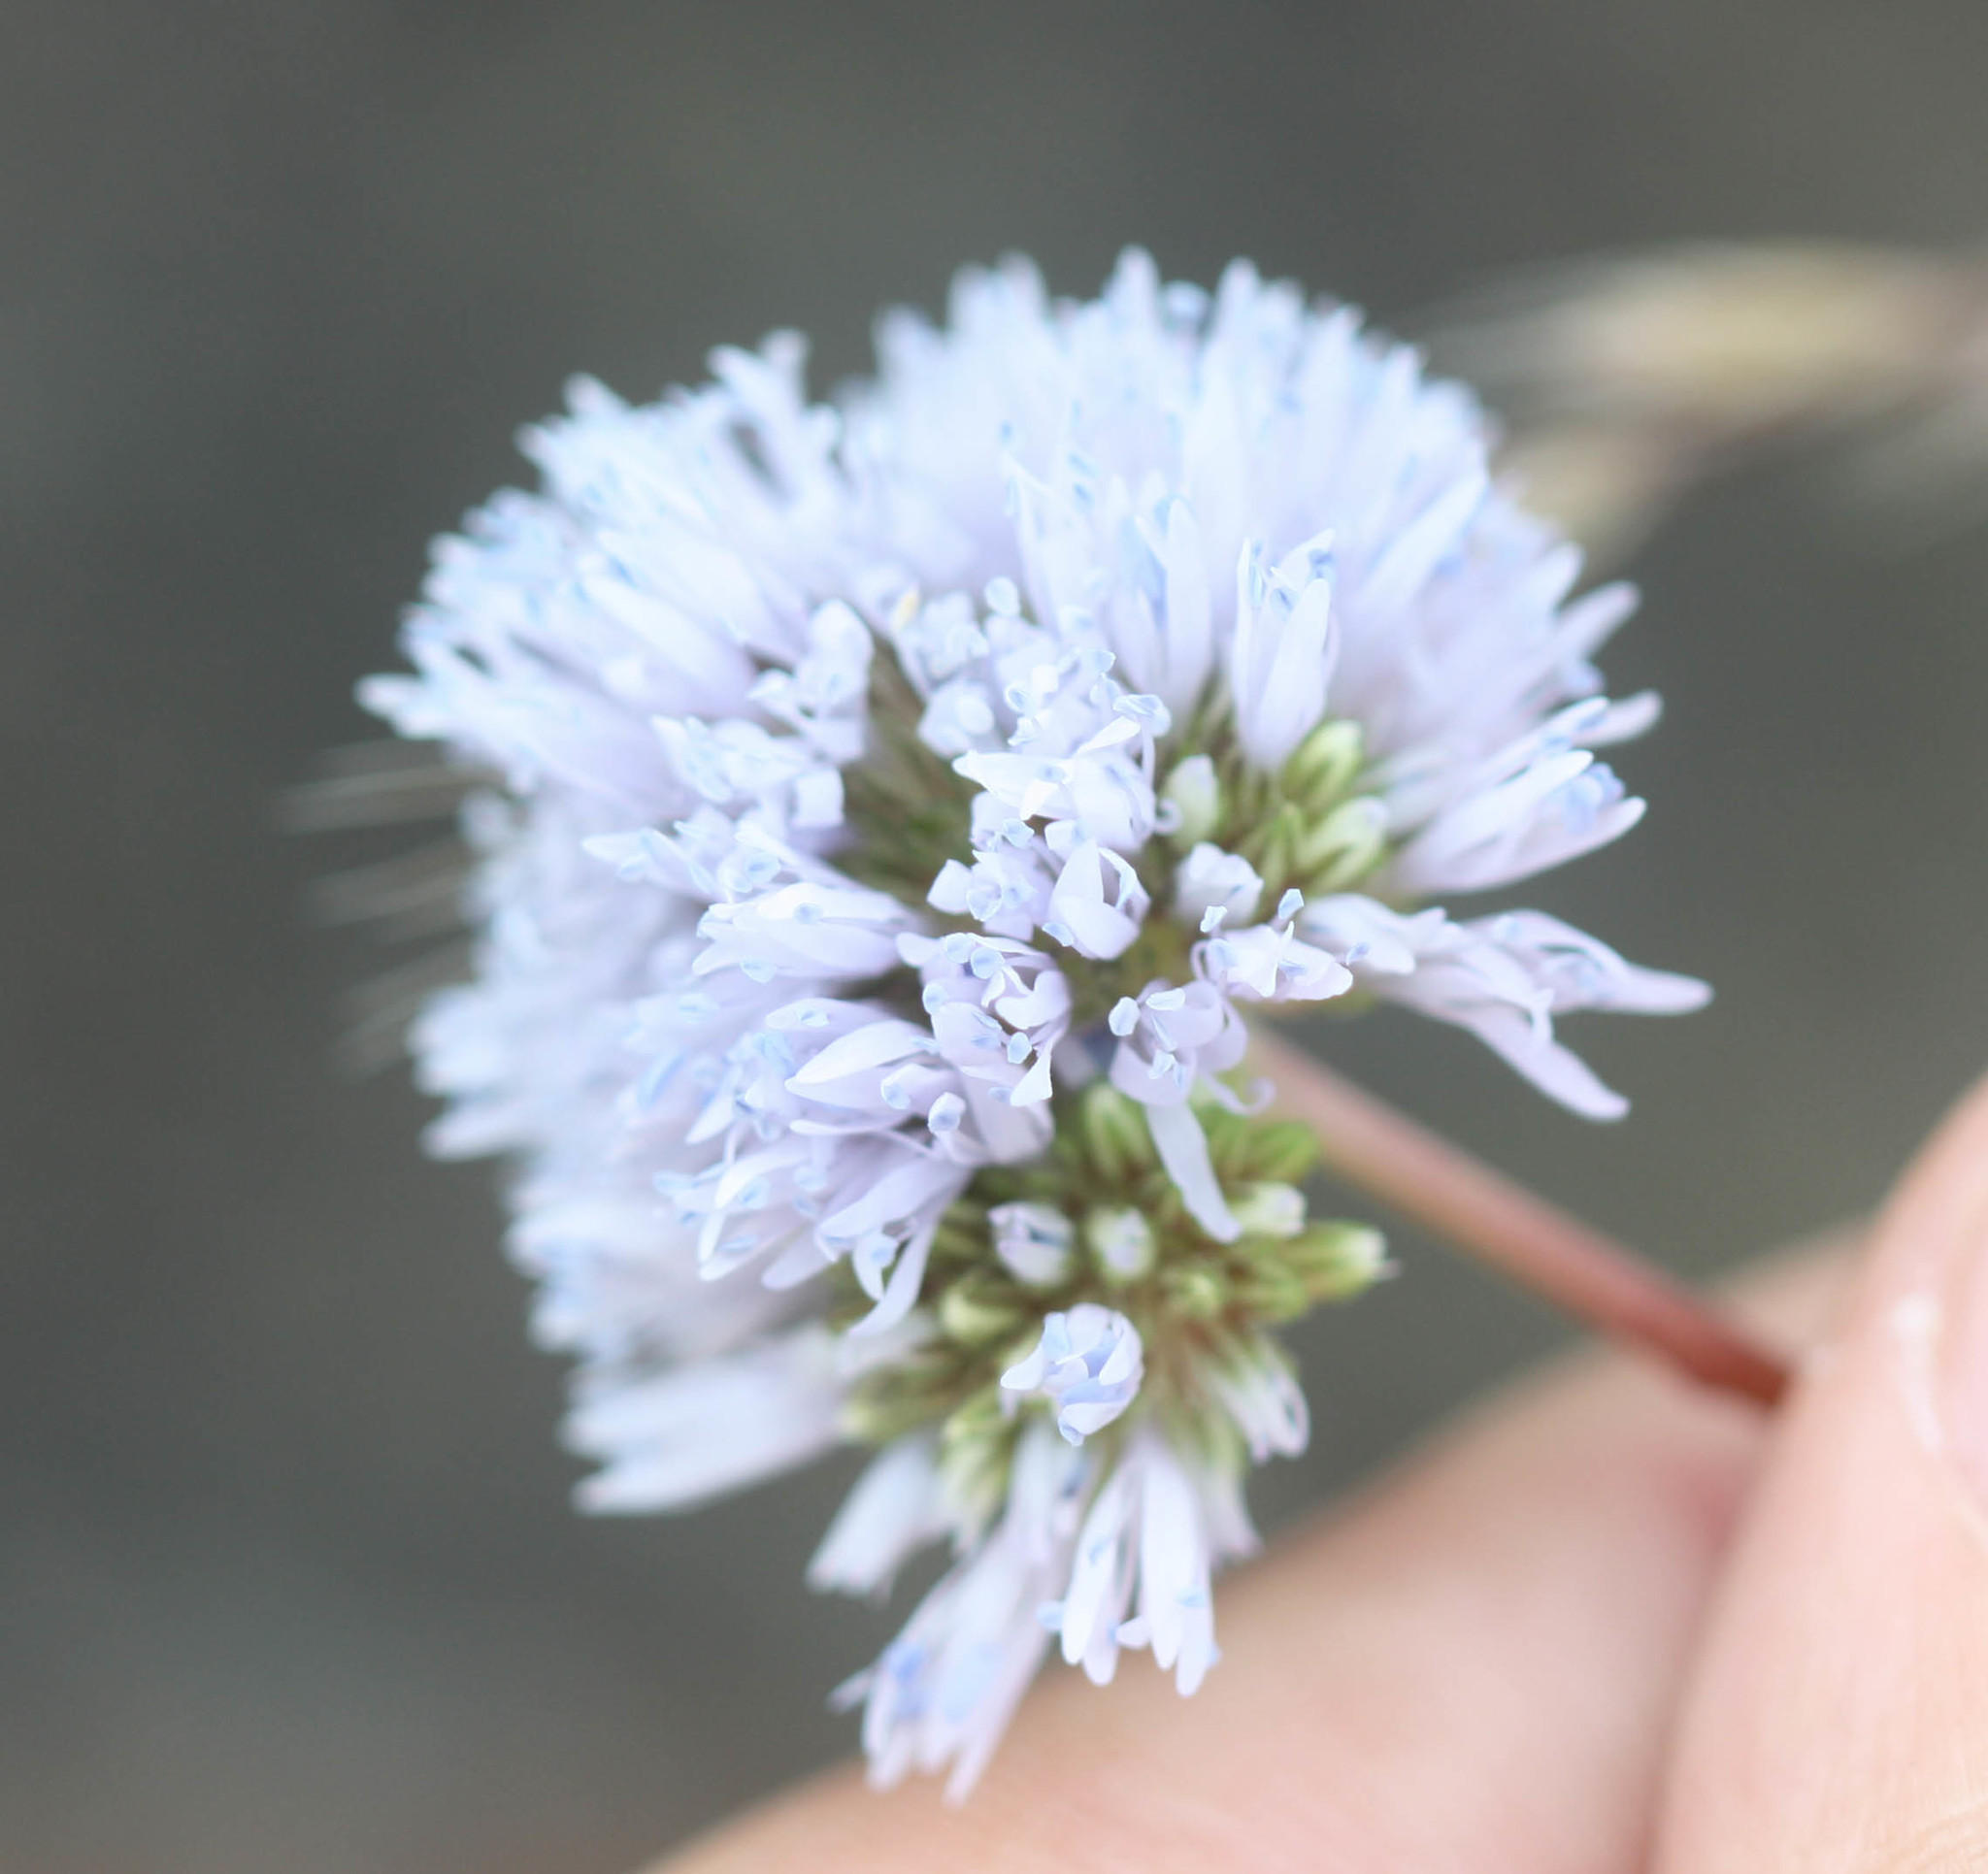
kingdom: Plantae
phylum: Tracheophyta
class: Magnoliopsida
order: Ericales
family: Polemoniaceae
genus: Gilia
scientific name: Gilia capitata
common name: Bluehead gilia
